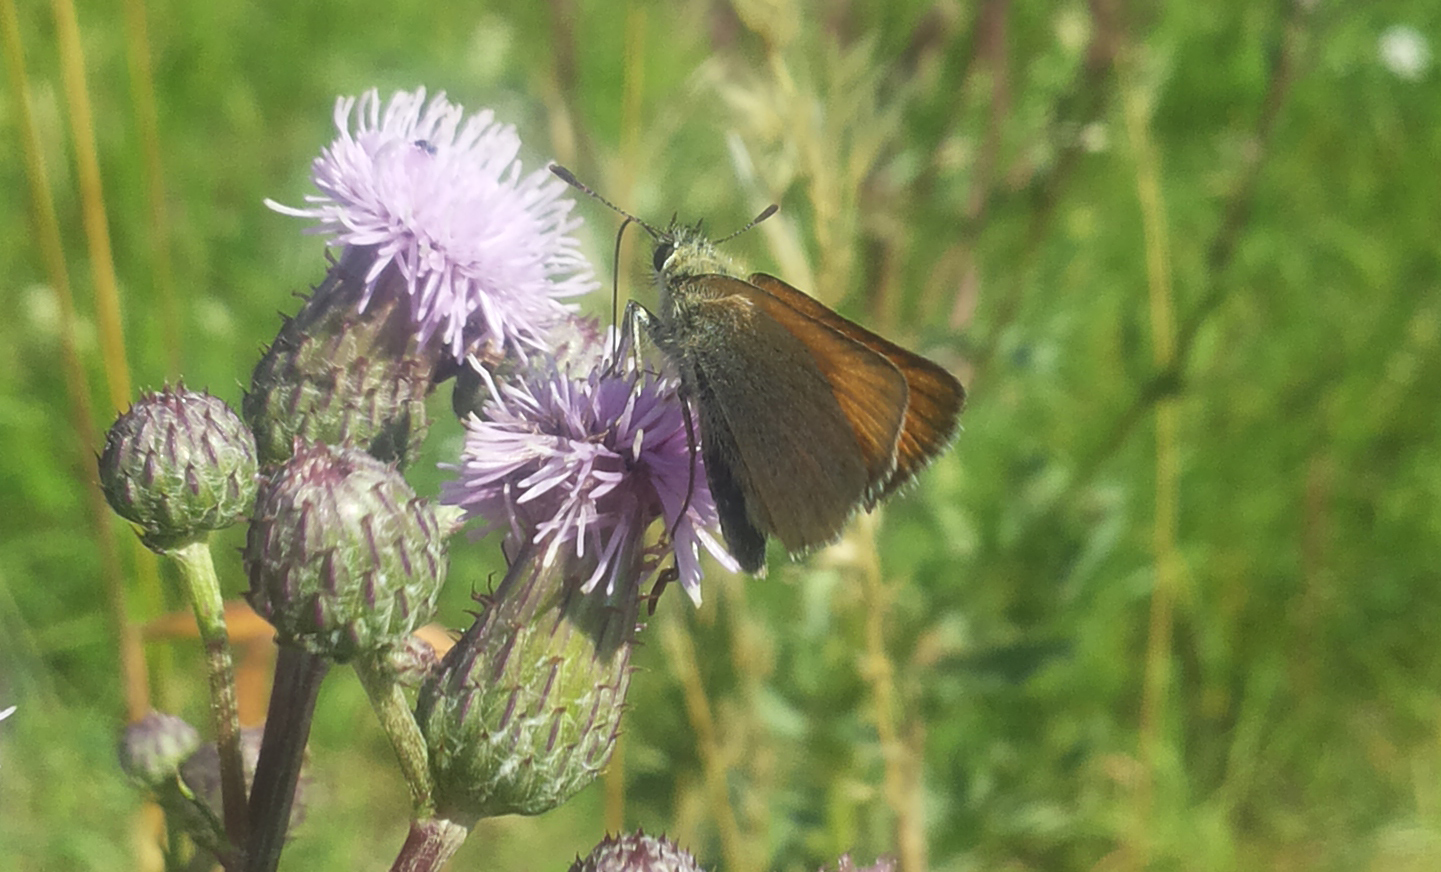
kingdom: Animalia
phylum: Arthropoda
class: Insecta
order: Lepidoptera
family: Hesperiidae
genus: Thymelicus
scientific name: Thymelicus lineola
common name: Essex skipper
